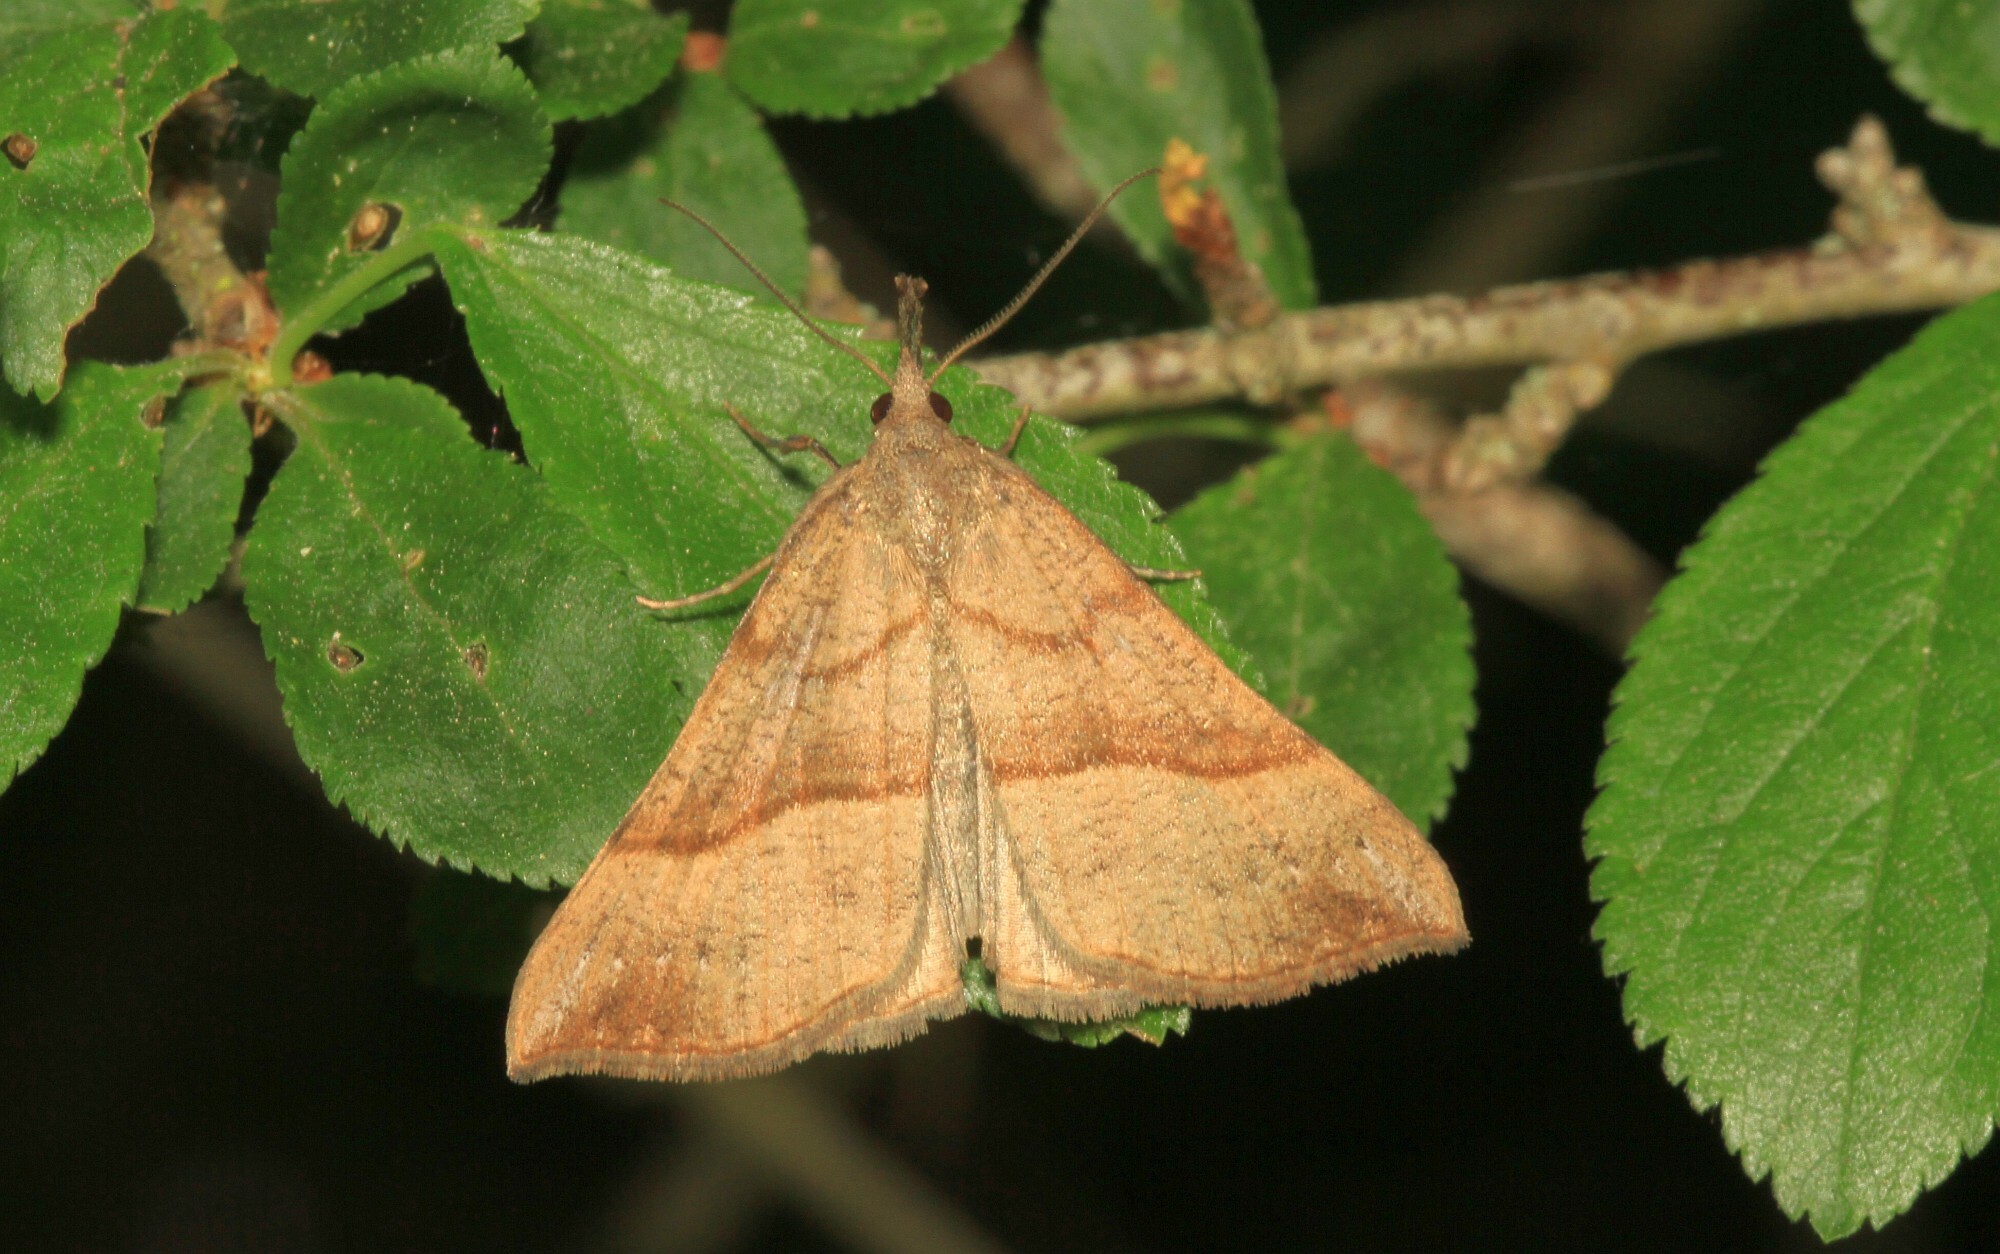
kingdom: Animalia
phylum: Arthropoda
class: Insecta
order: Lepidoptera
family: Erebidae
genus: Hypena
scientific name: Hypena proboscidalis
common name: Snout
